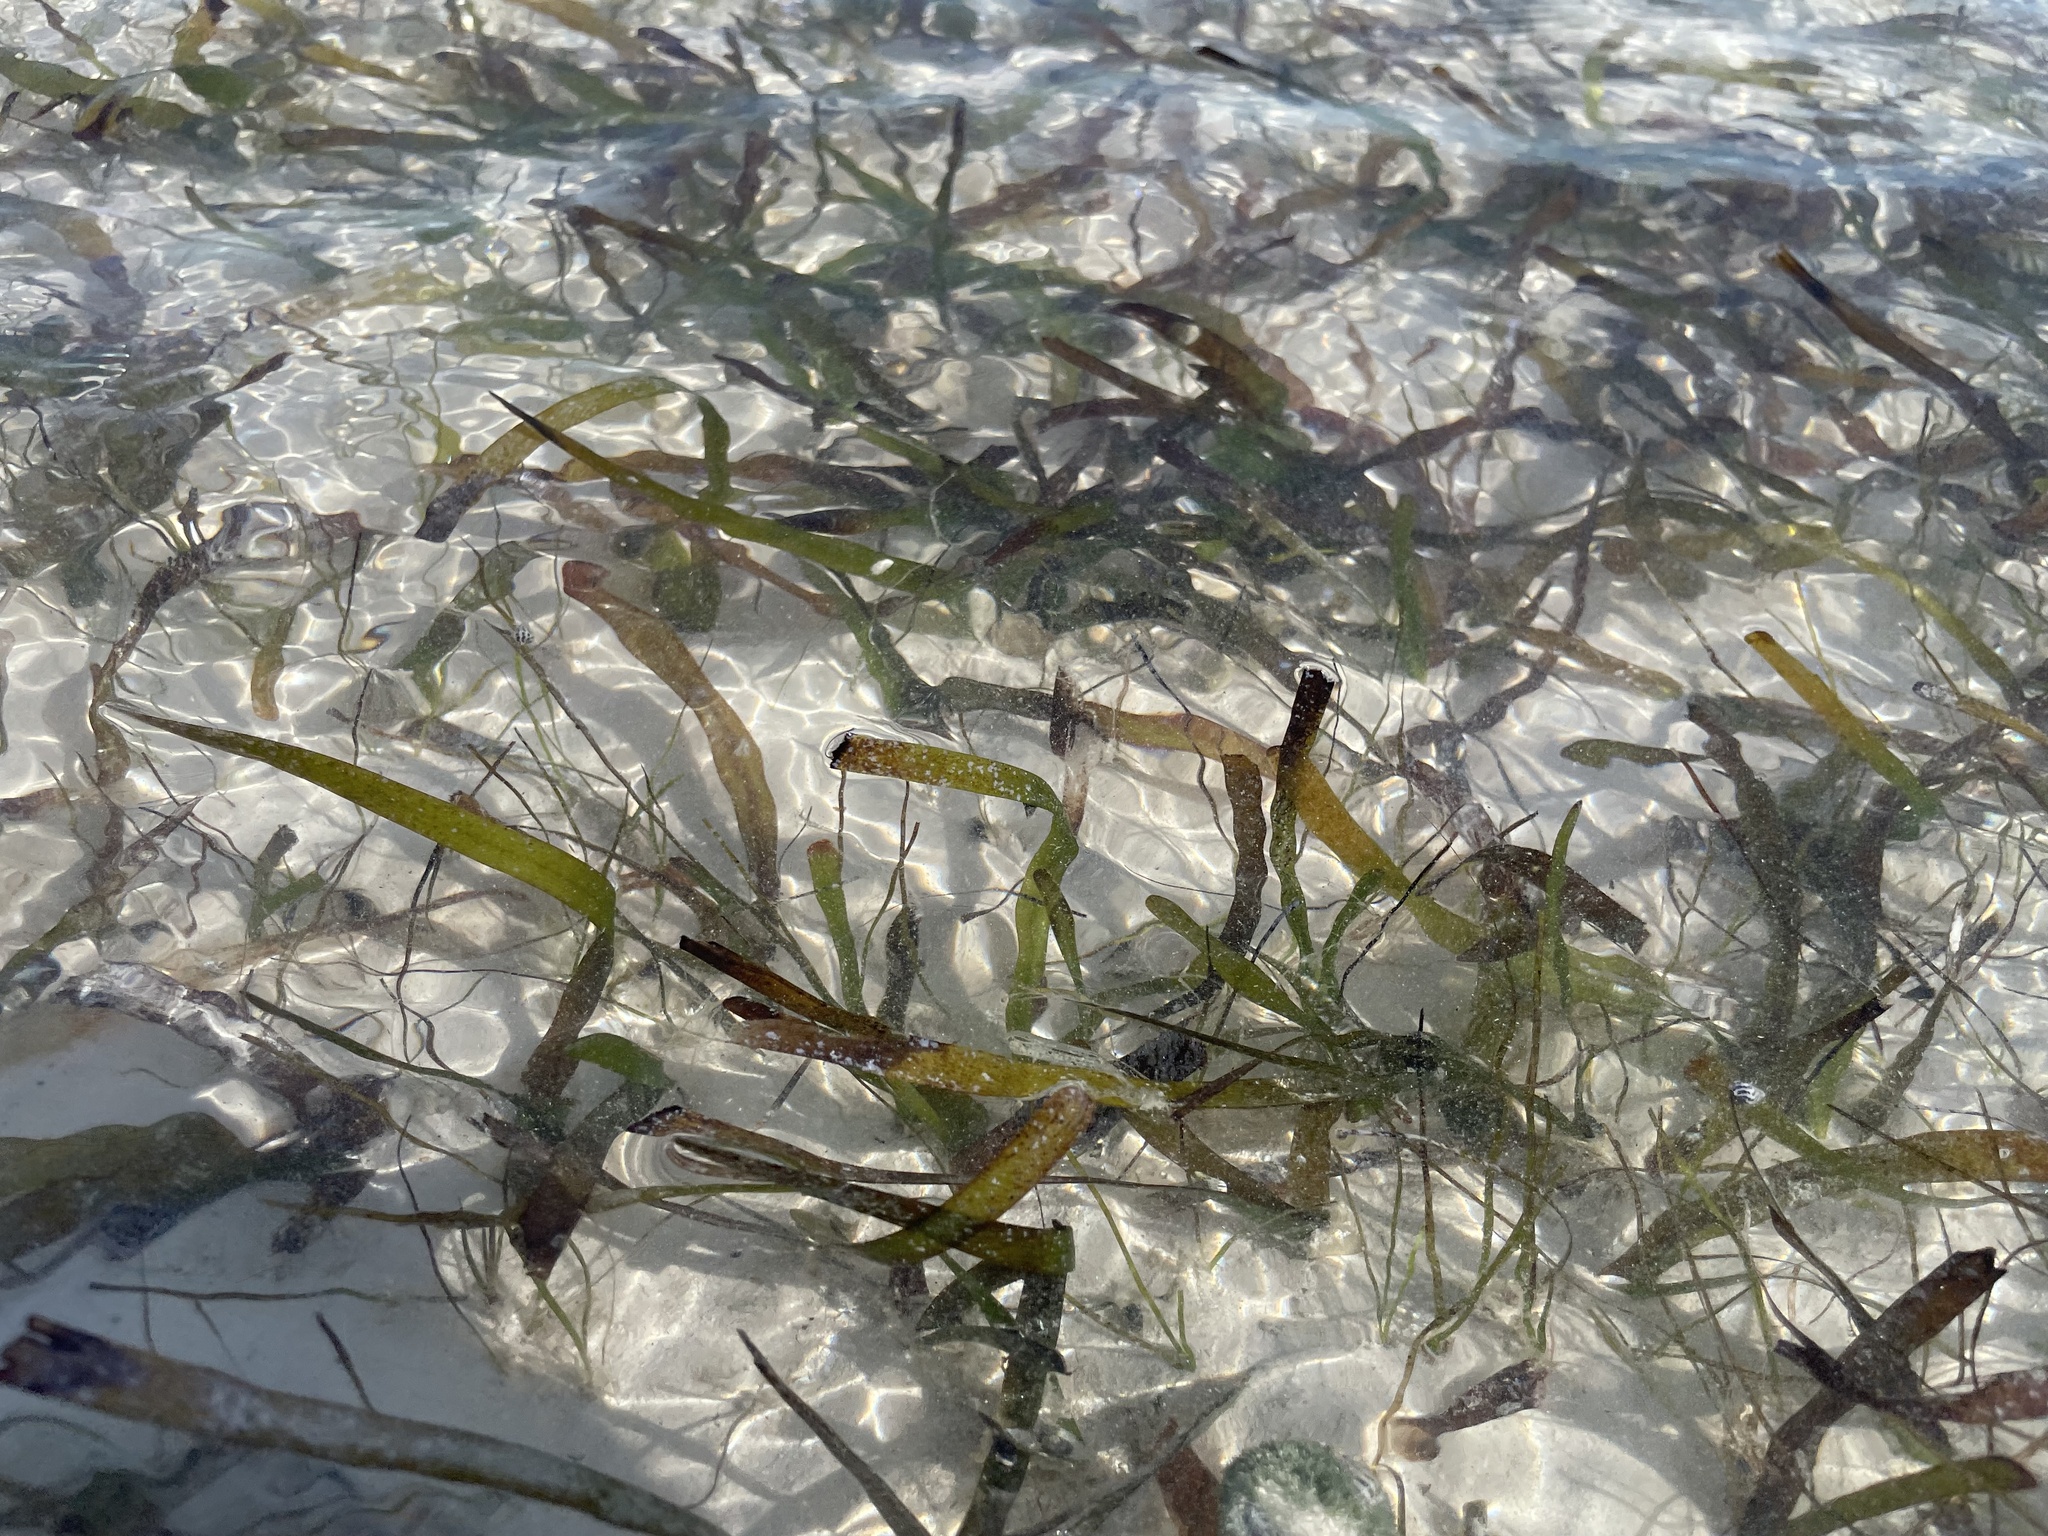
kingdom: Plantae
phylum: Tracheophyta
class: Liliopsida
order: Alismatales
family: Hydrocharitaceae
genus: Thalassia
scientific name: Thalassia testudinum
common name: Species code: tt
